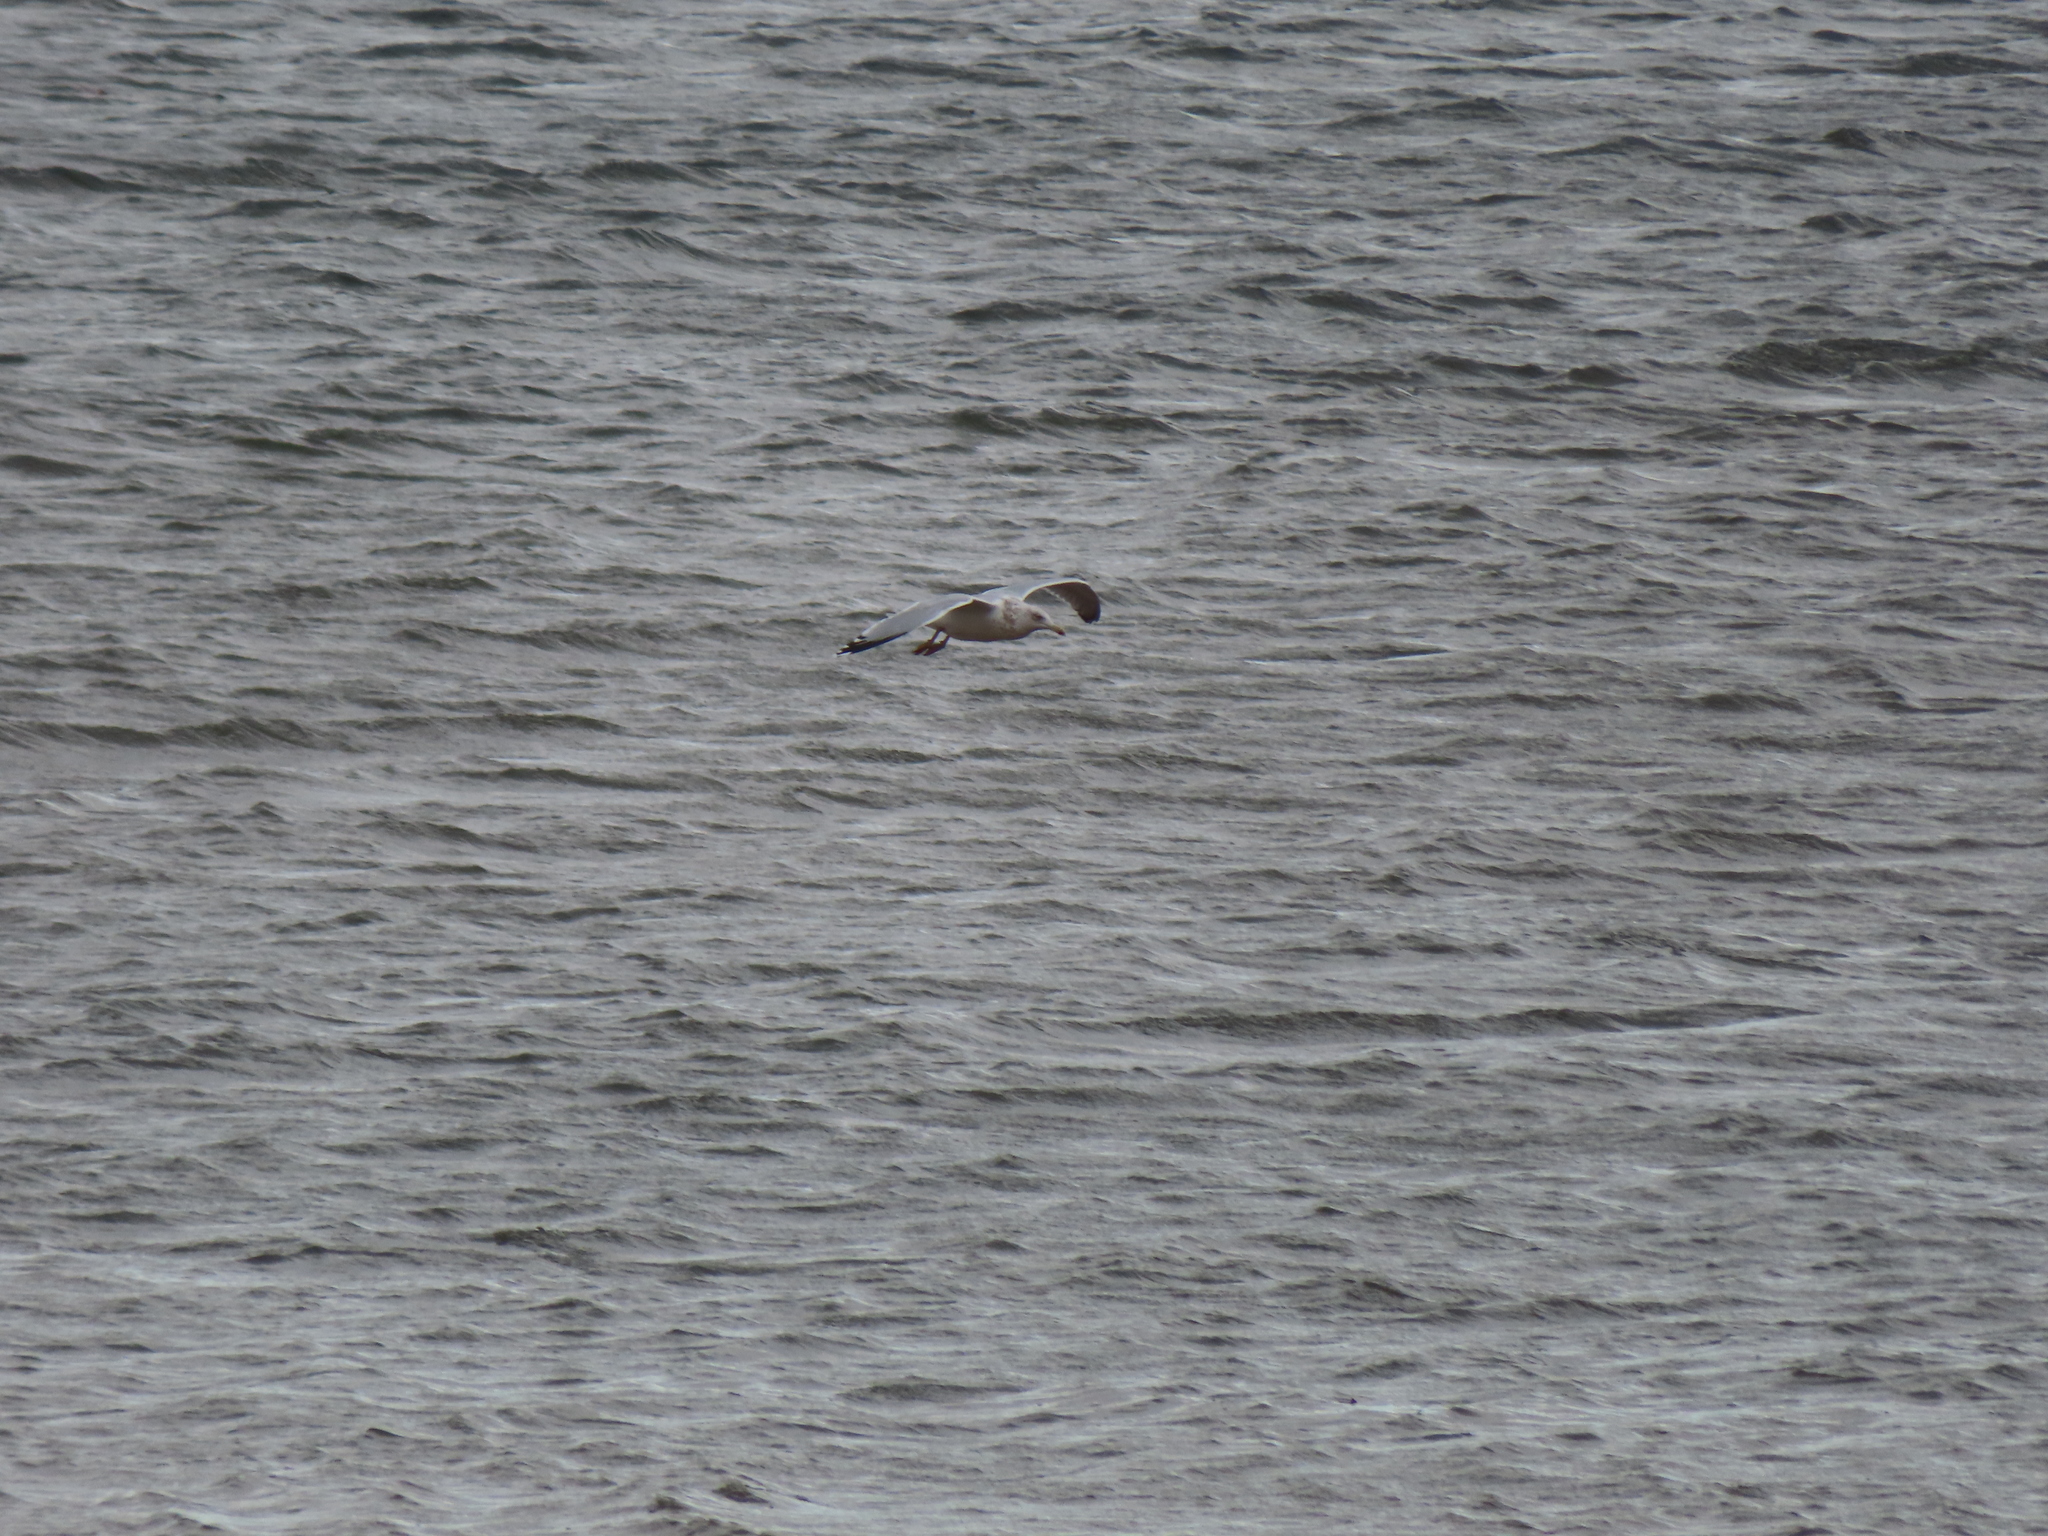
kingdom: Animalia
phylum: Chordata
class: Aves
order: Charadriiformes
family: Laridae
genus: Larus
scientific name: Larus argentatus
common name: Herring gull
